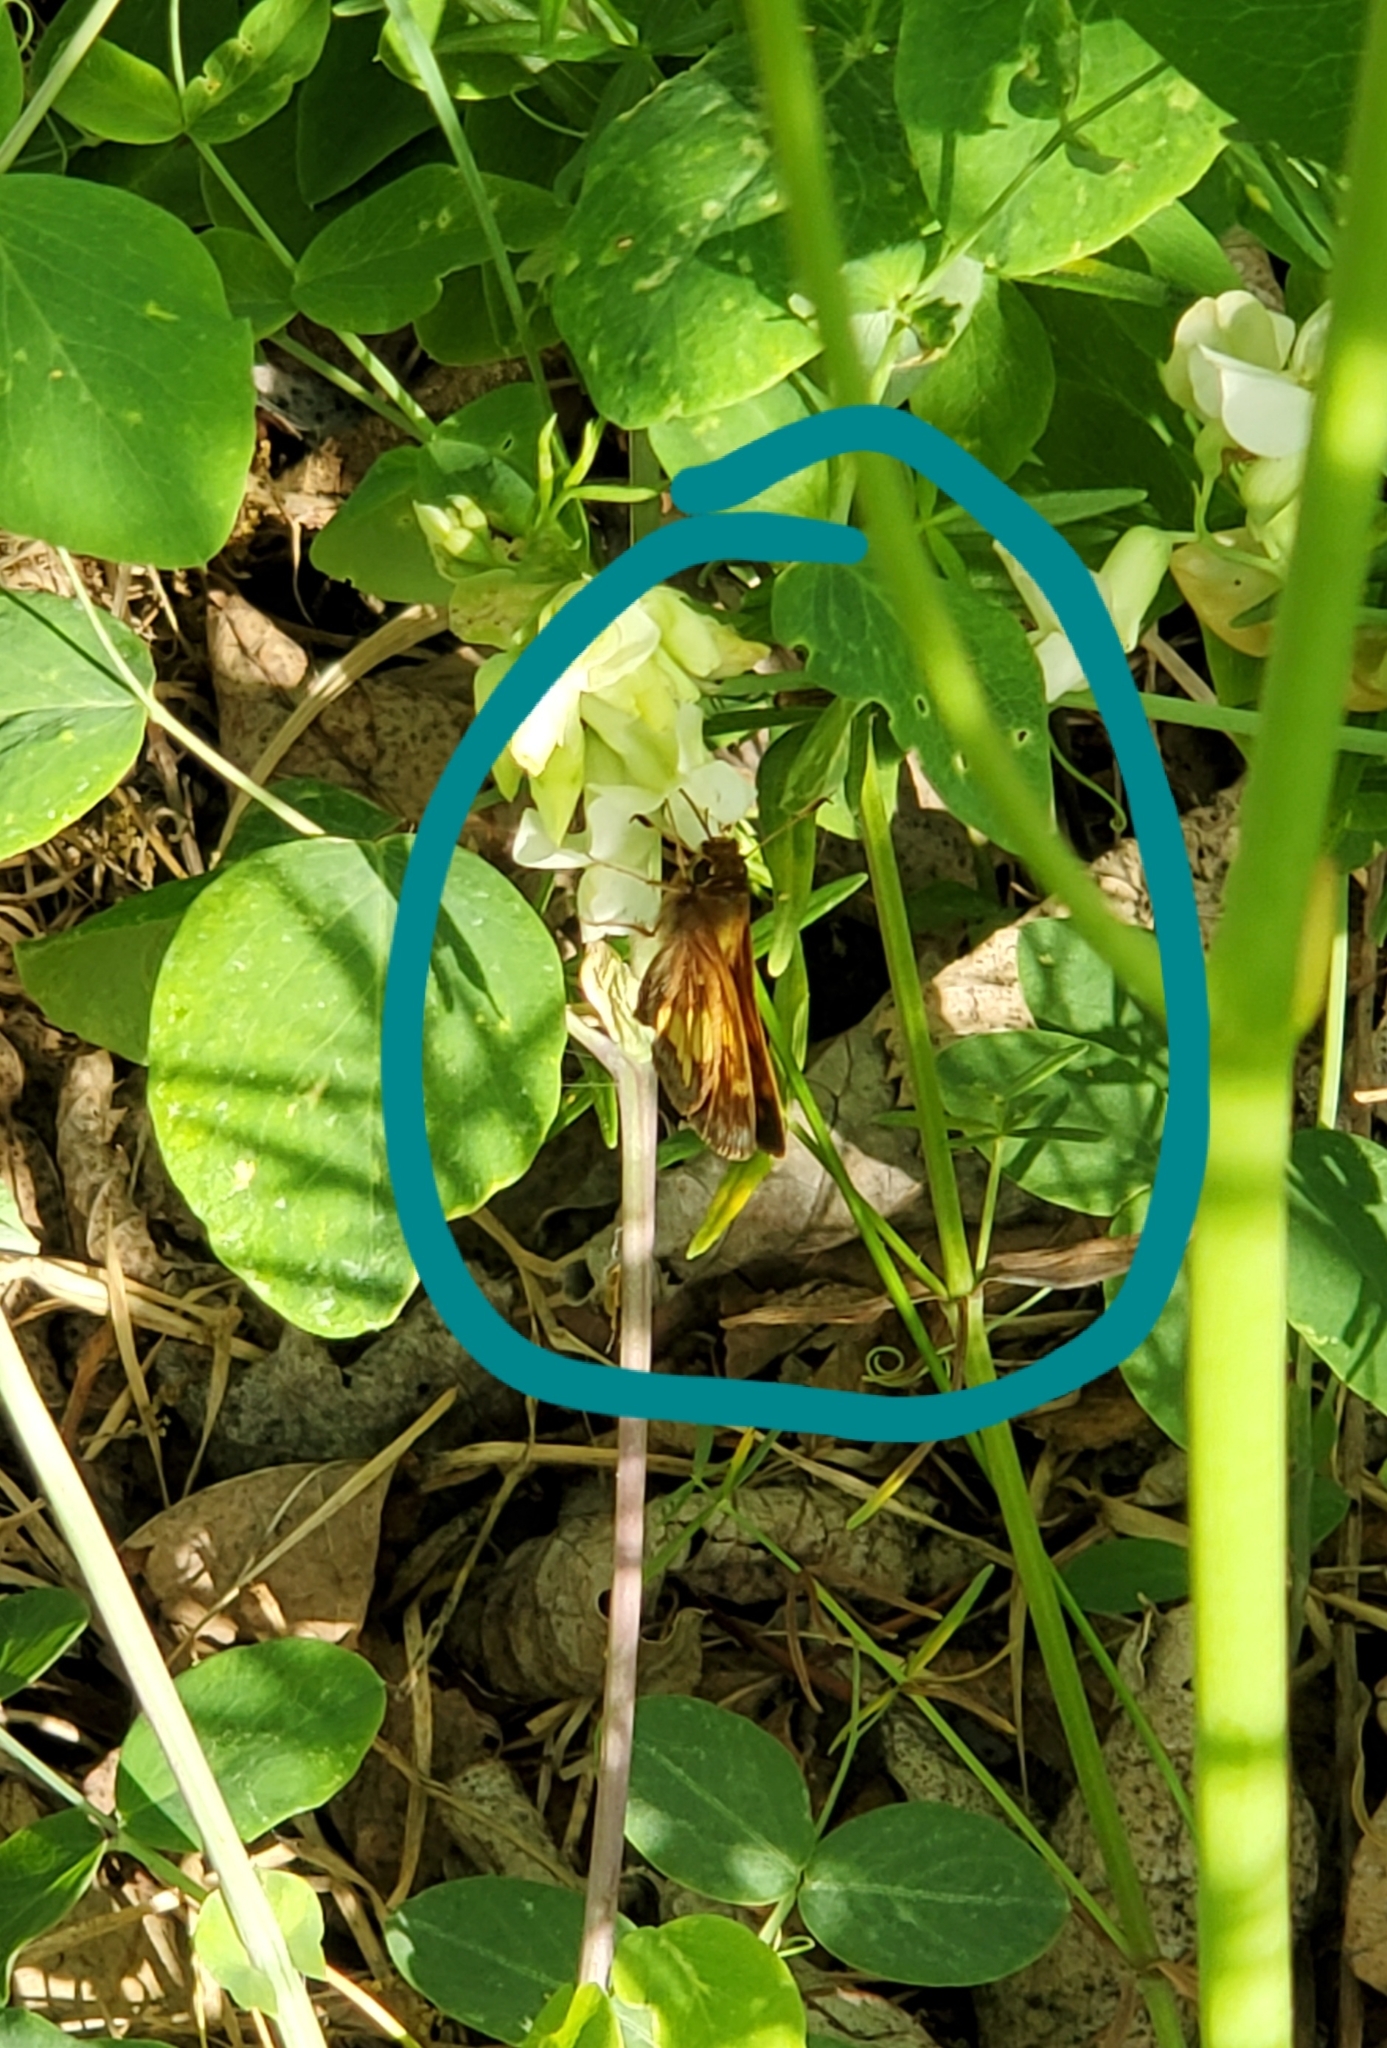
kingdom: Animalia
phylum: Arthropoda
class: Insecta
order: Lepidoptera
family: Hesperiidae
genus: Lon
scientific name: Lon hobomok
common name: Hobomok skipper
